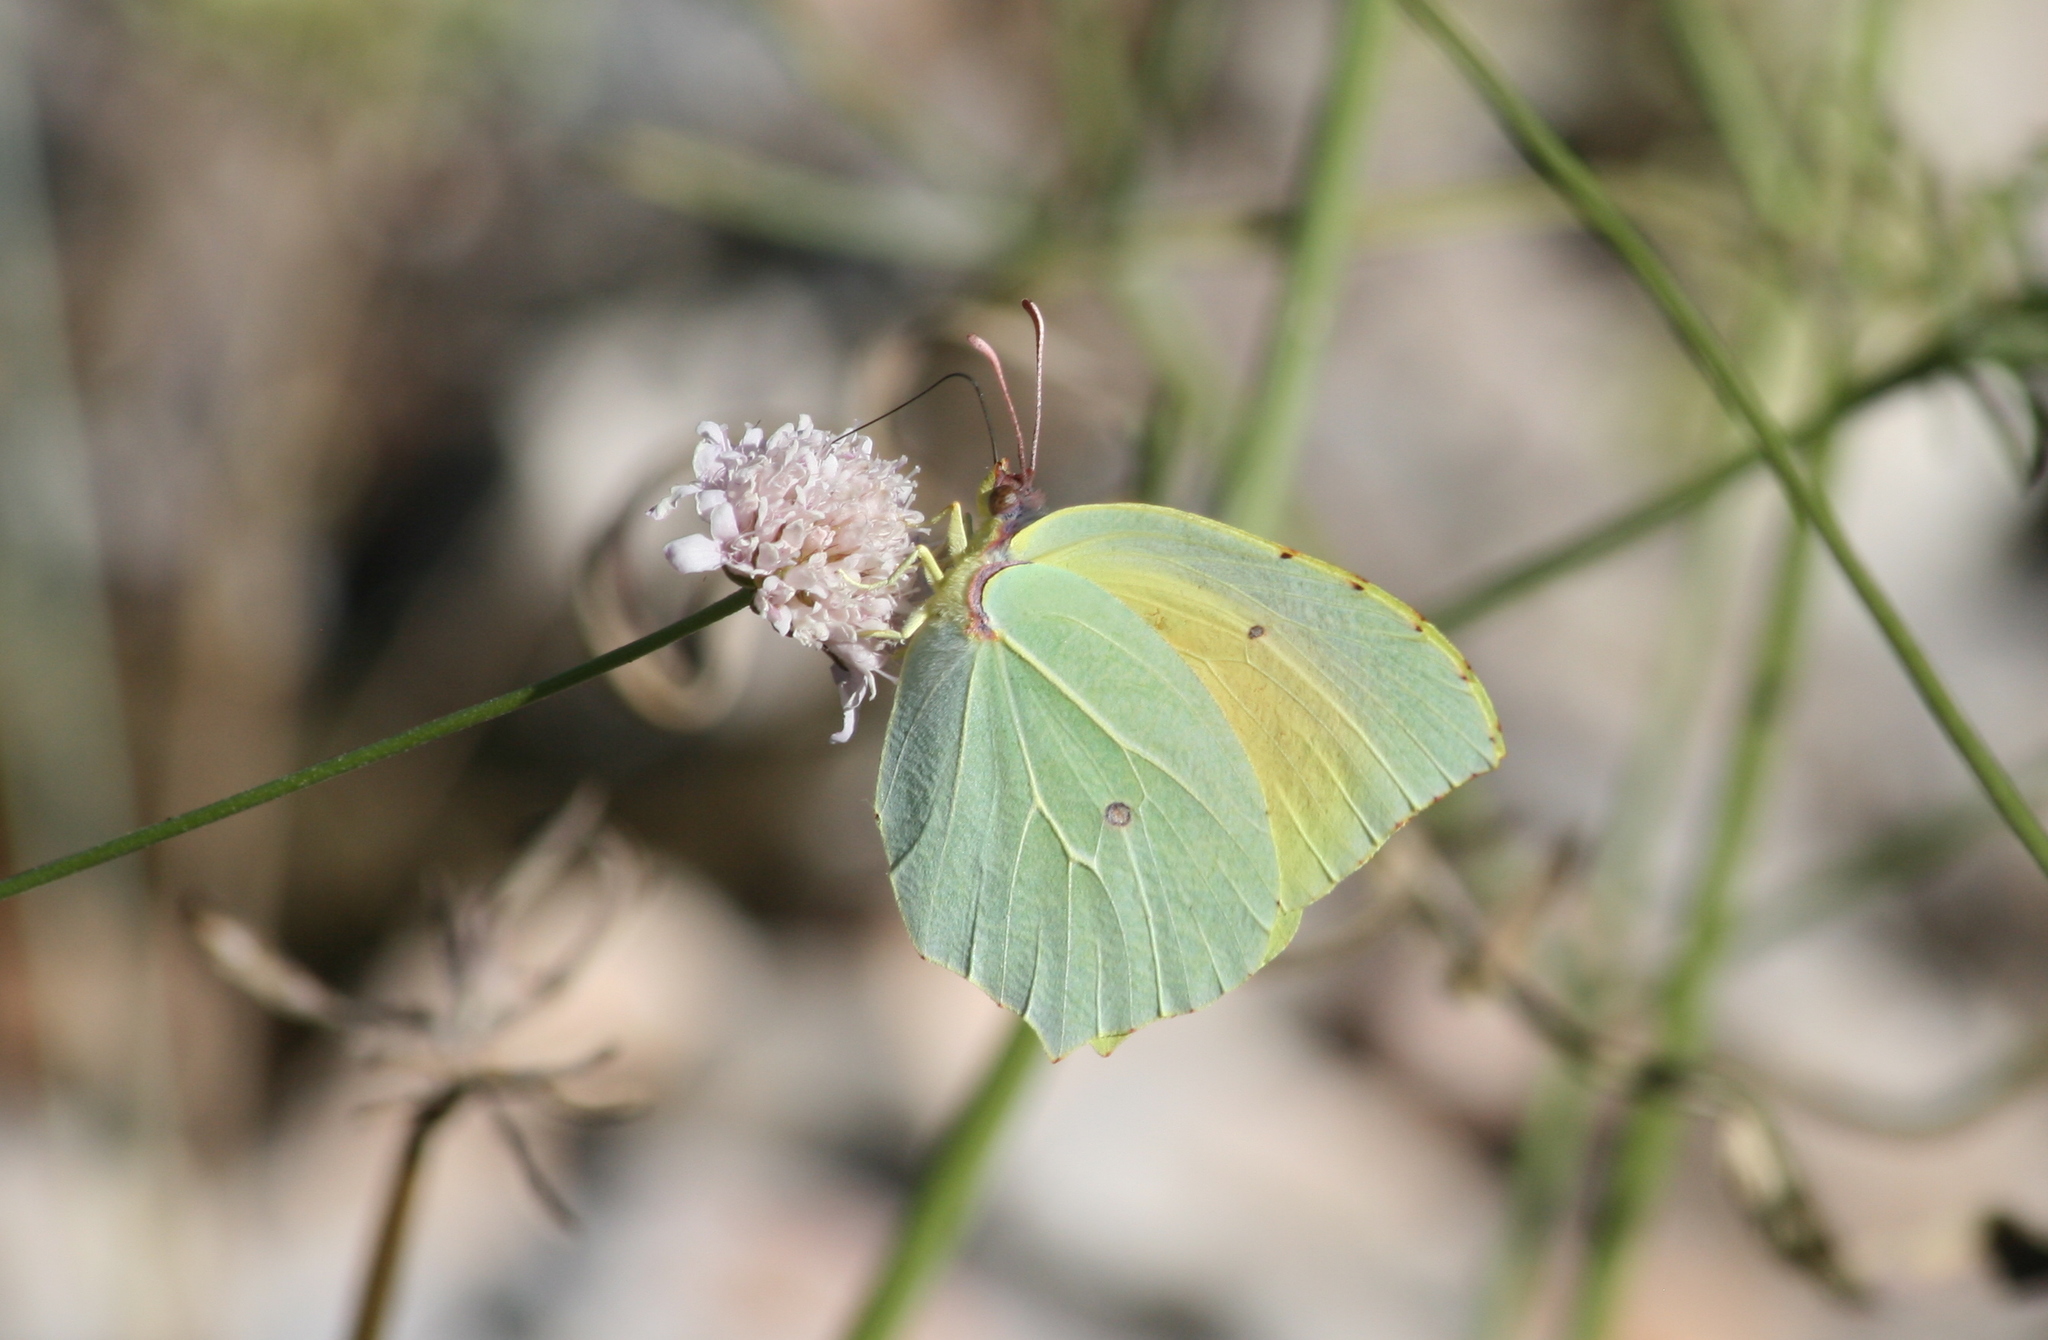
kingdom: Animalia
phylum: Arthropoda
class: Insecta
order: Lepidoptera
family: Pieridae
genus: Gonepteryx
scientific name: Gonepteryx cleopatra
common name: Cleopatra
